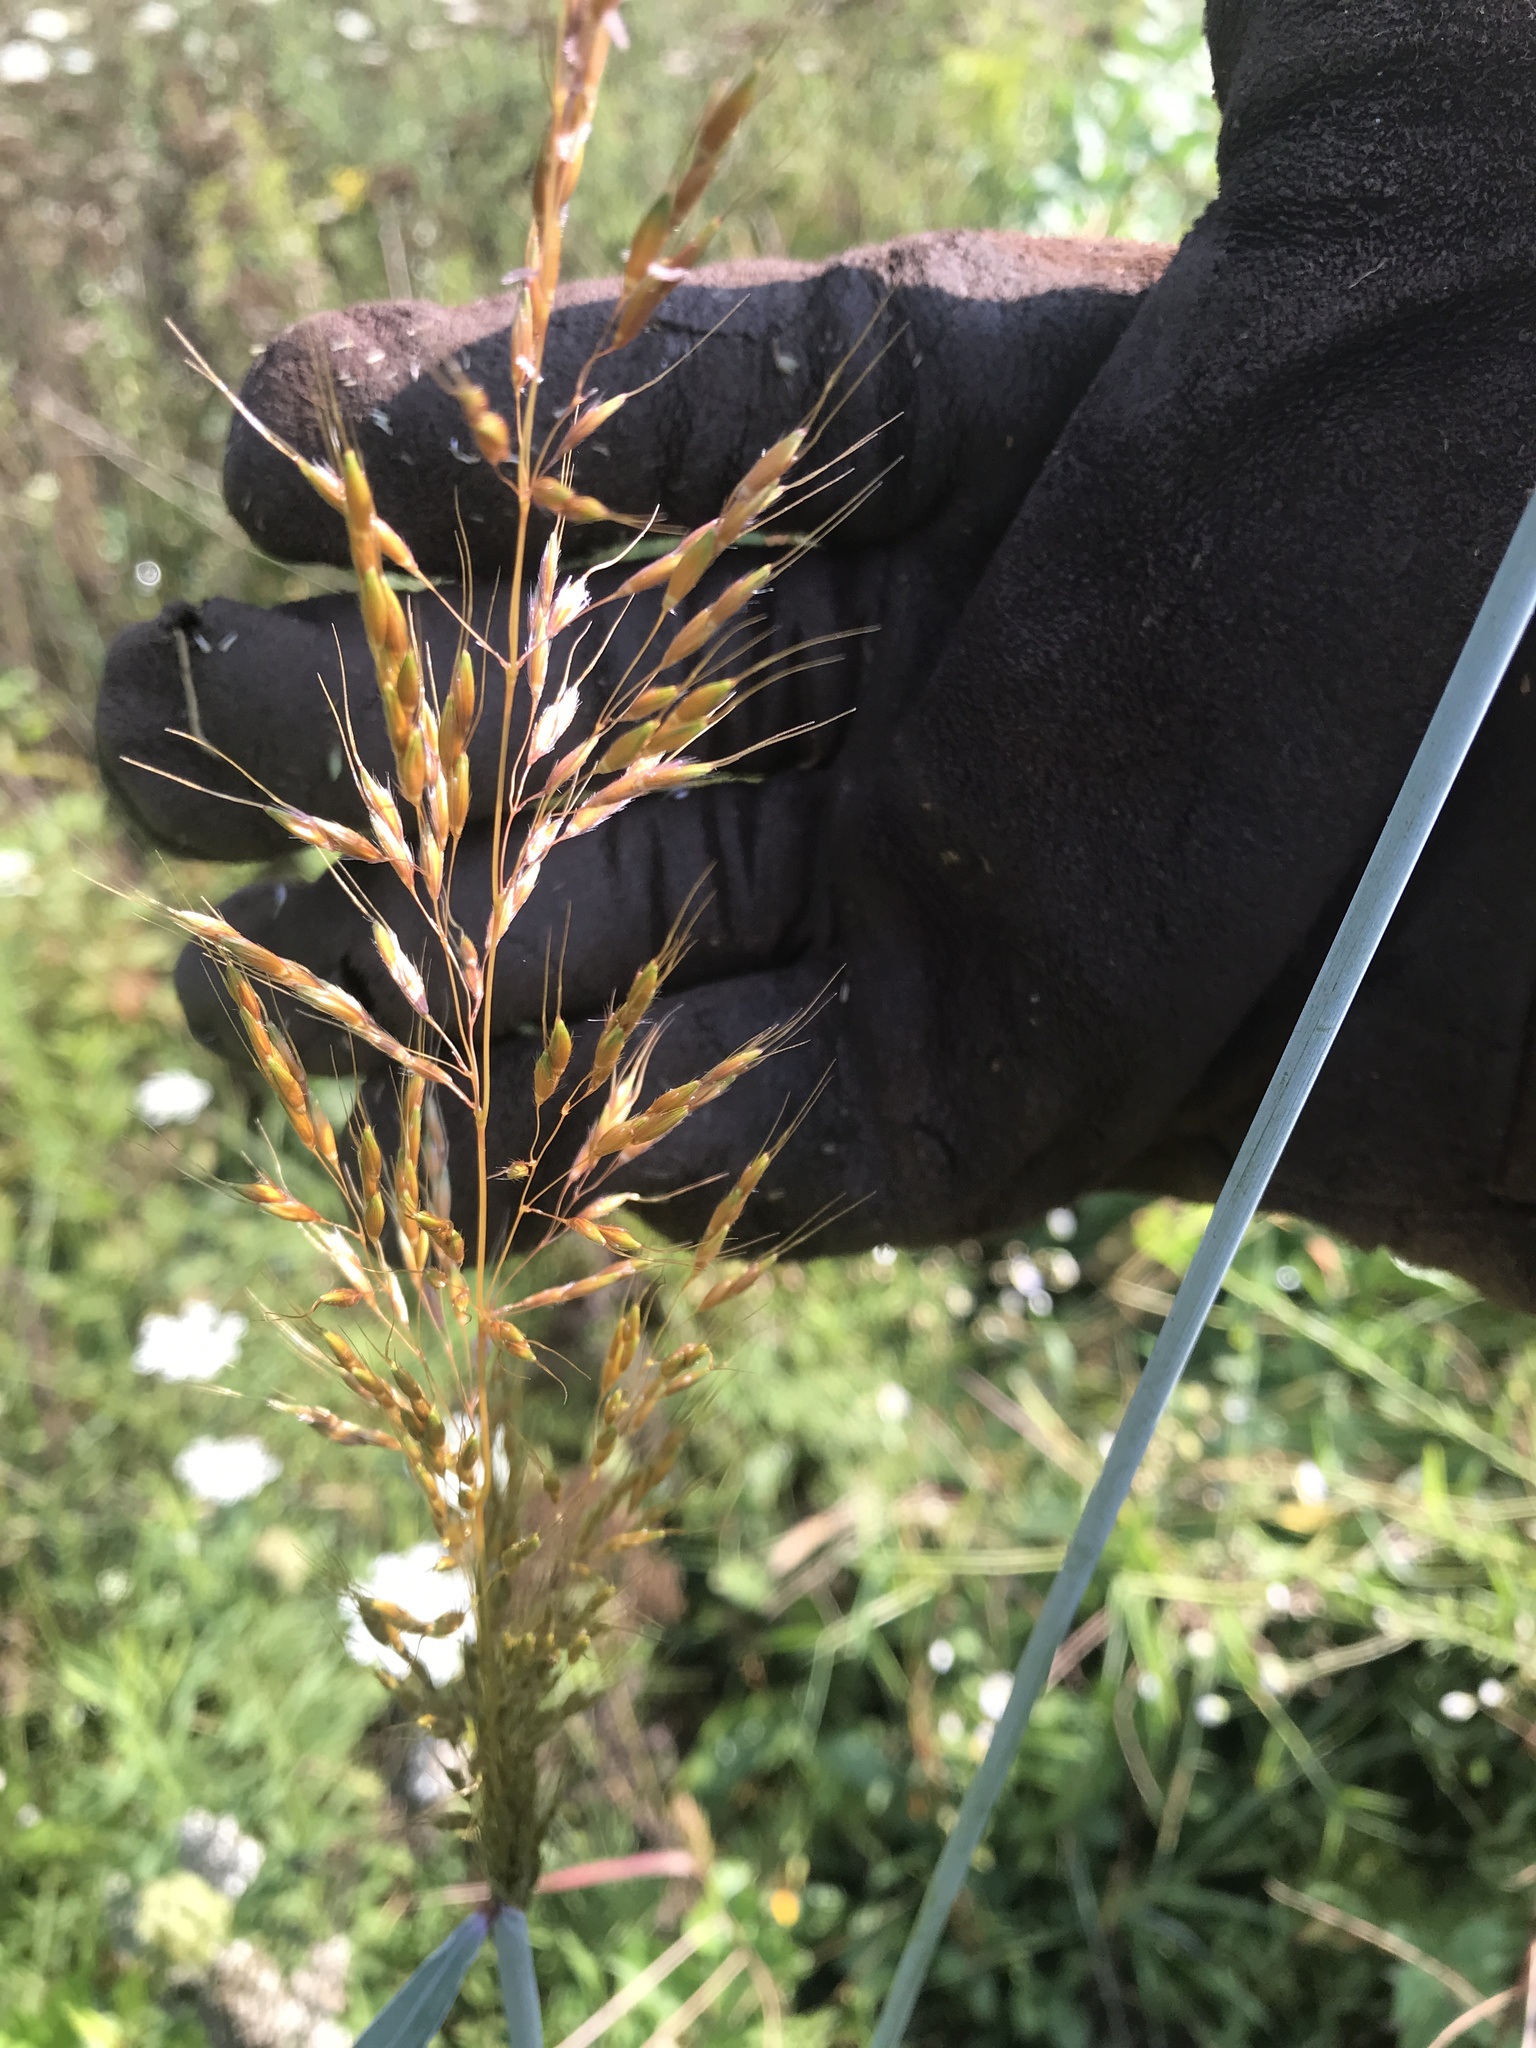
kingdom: Plantae
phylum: Tracheophyta
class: Liliopsida
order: Poales
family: Poaceae
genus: Sorghastrum
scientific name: Sorghastrum nutans
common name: Indian grass
